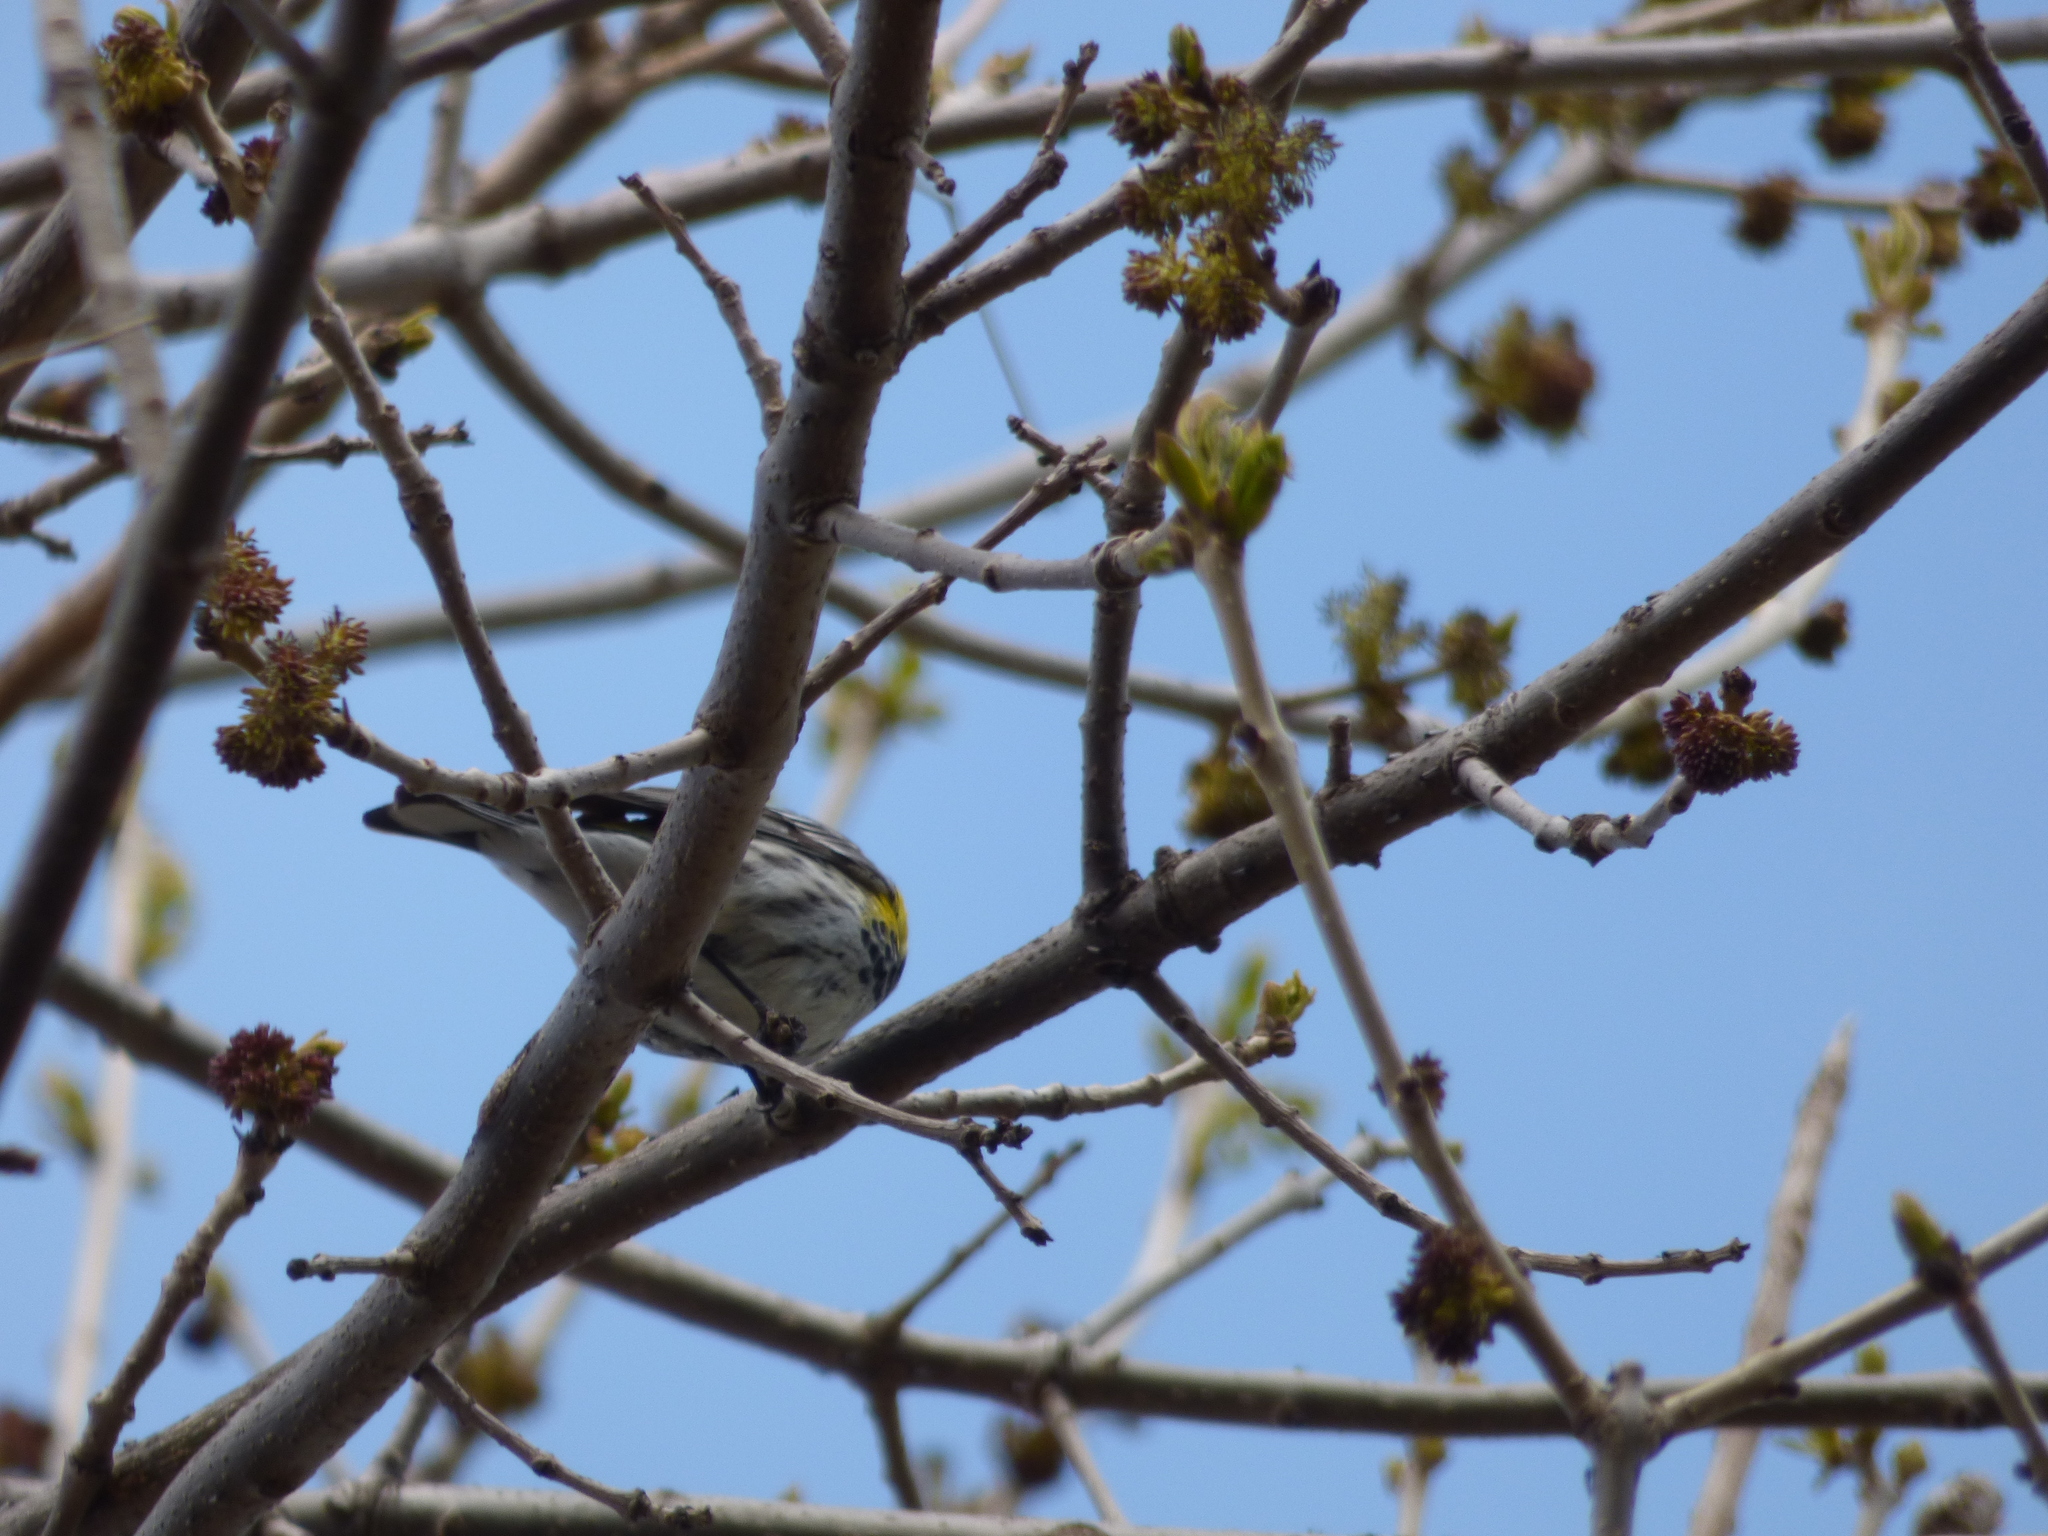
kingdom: Animalia
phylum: Chordata
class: Aves
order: Passeriformes
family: Parulidae
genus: Setophaga
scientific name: Setophaga coronata
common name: Myrtle warbler
